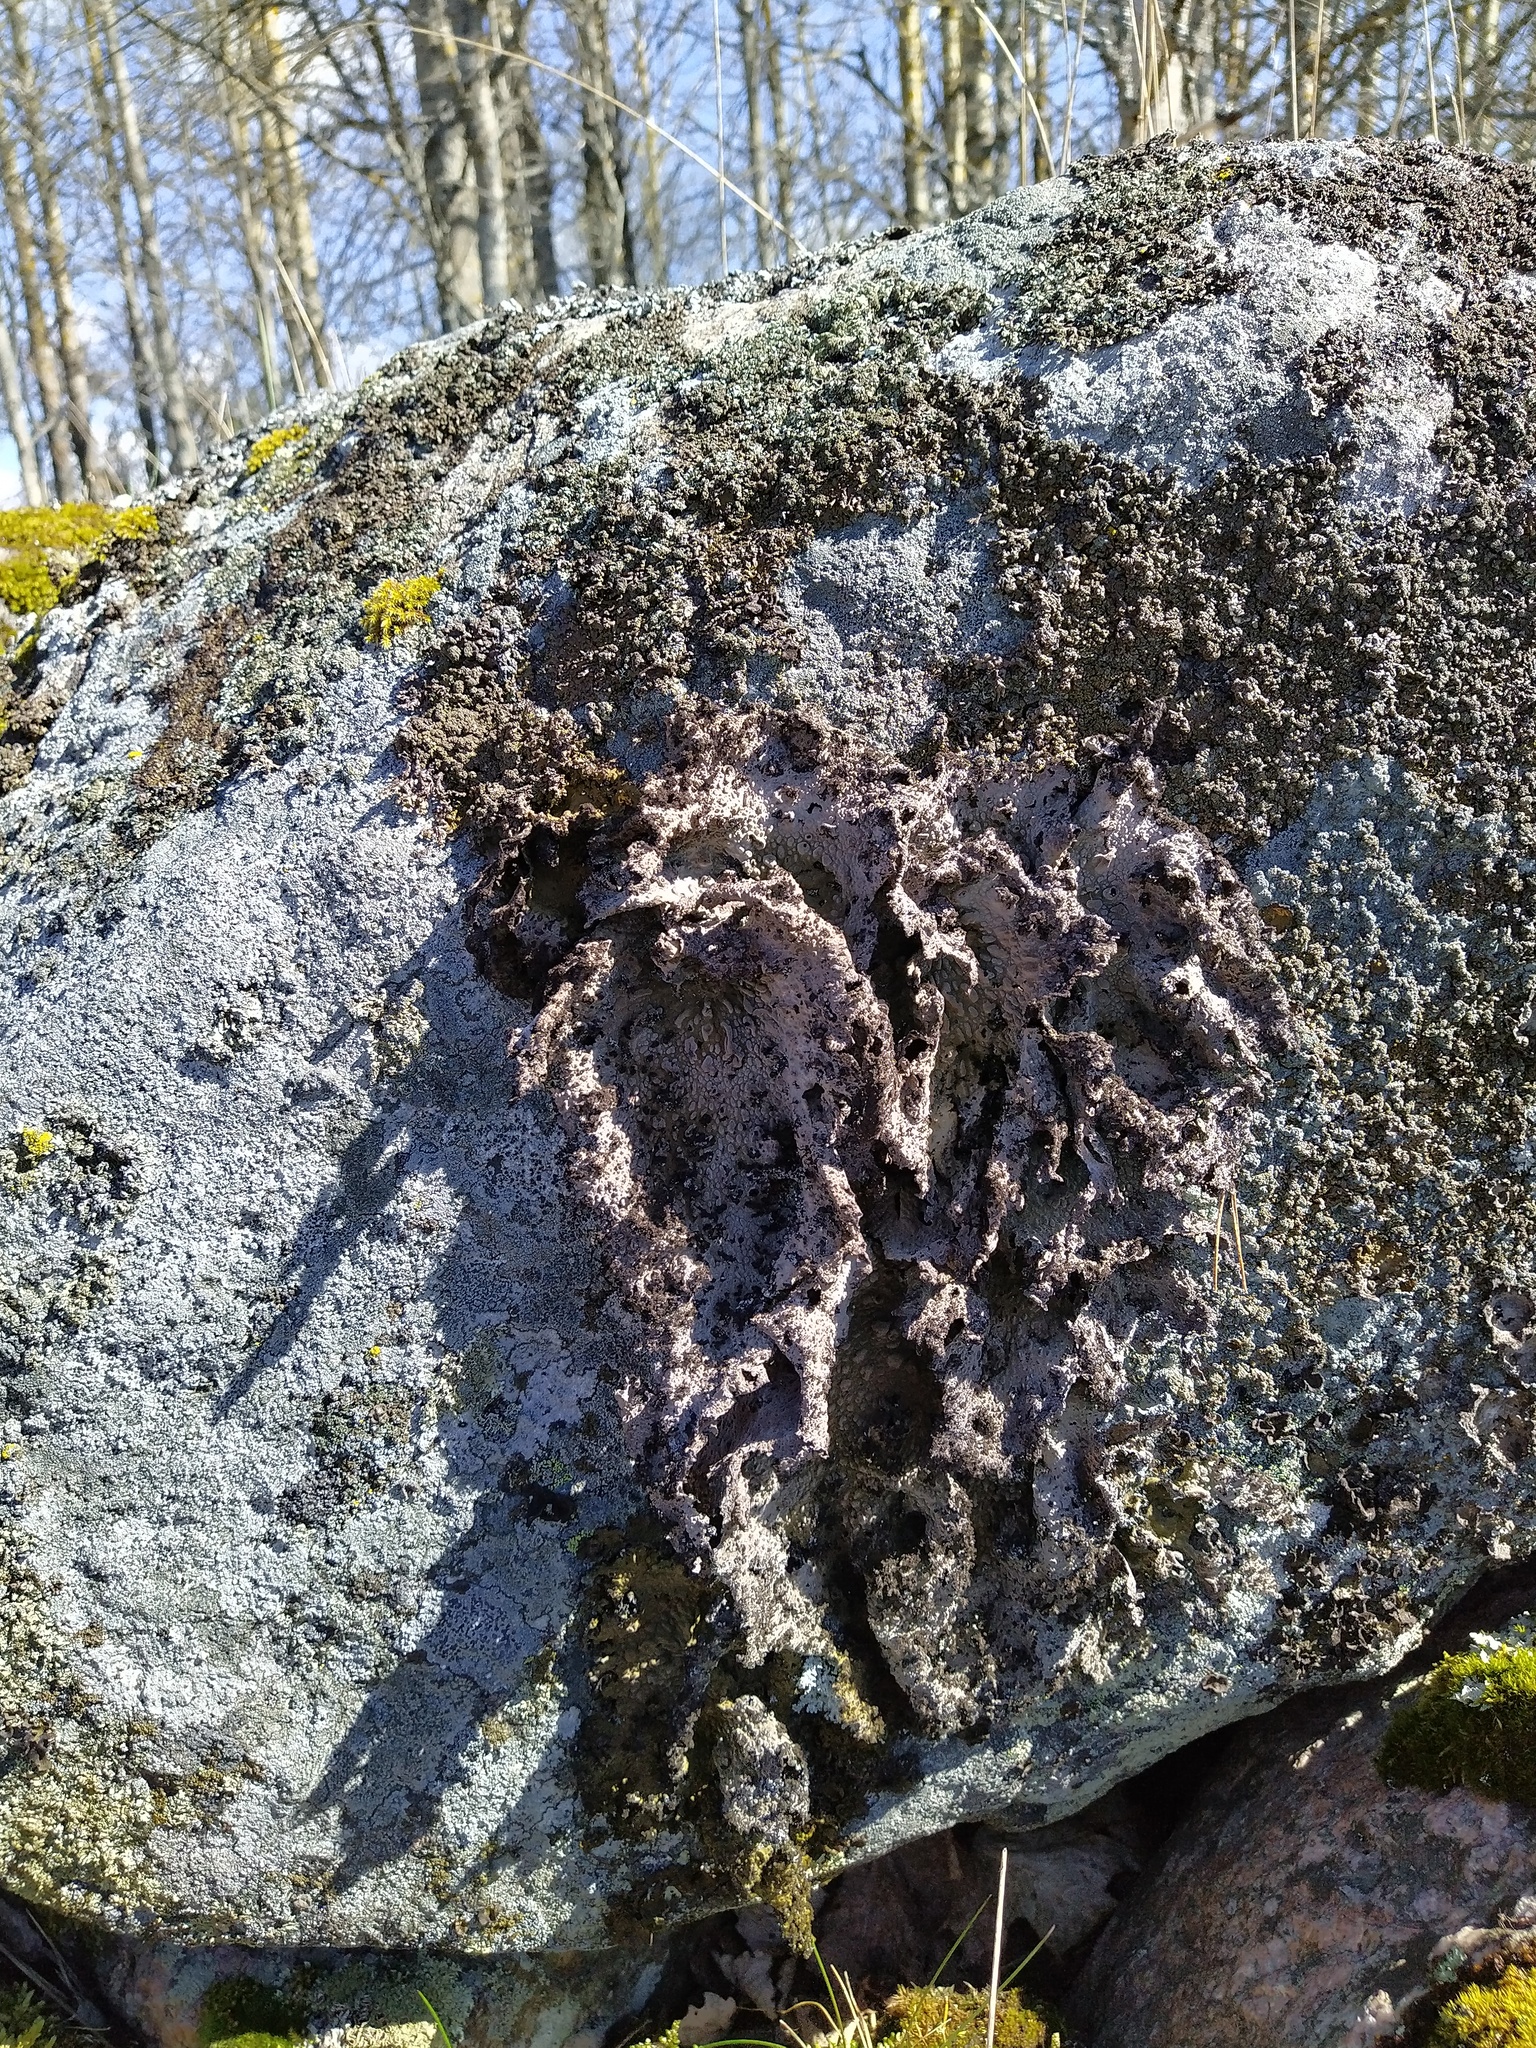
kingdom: Fungi
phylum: Ascomycota
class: Lecanoromycetes
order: Umbilicariales
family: Umbilicariaceae
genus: Lasallia
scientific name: Lasallia pustulata
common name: Blistered toadskin lichen
